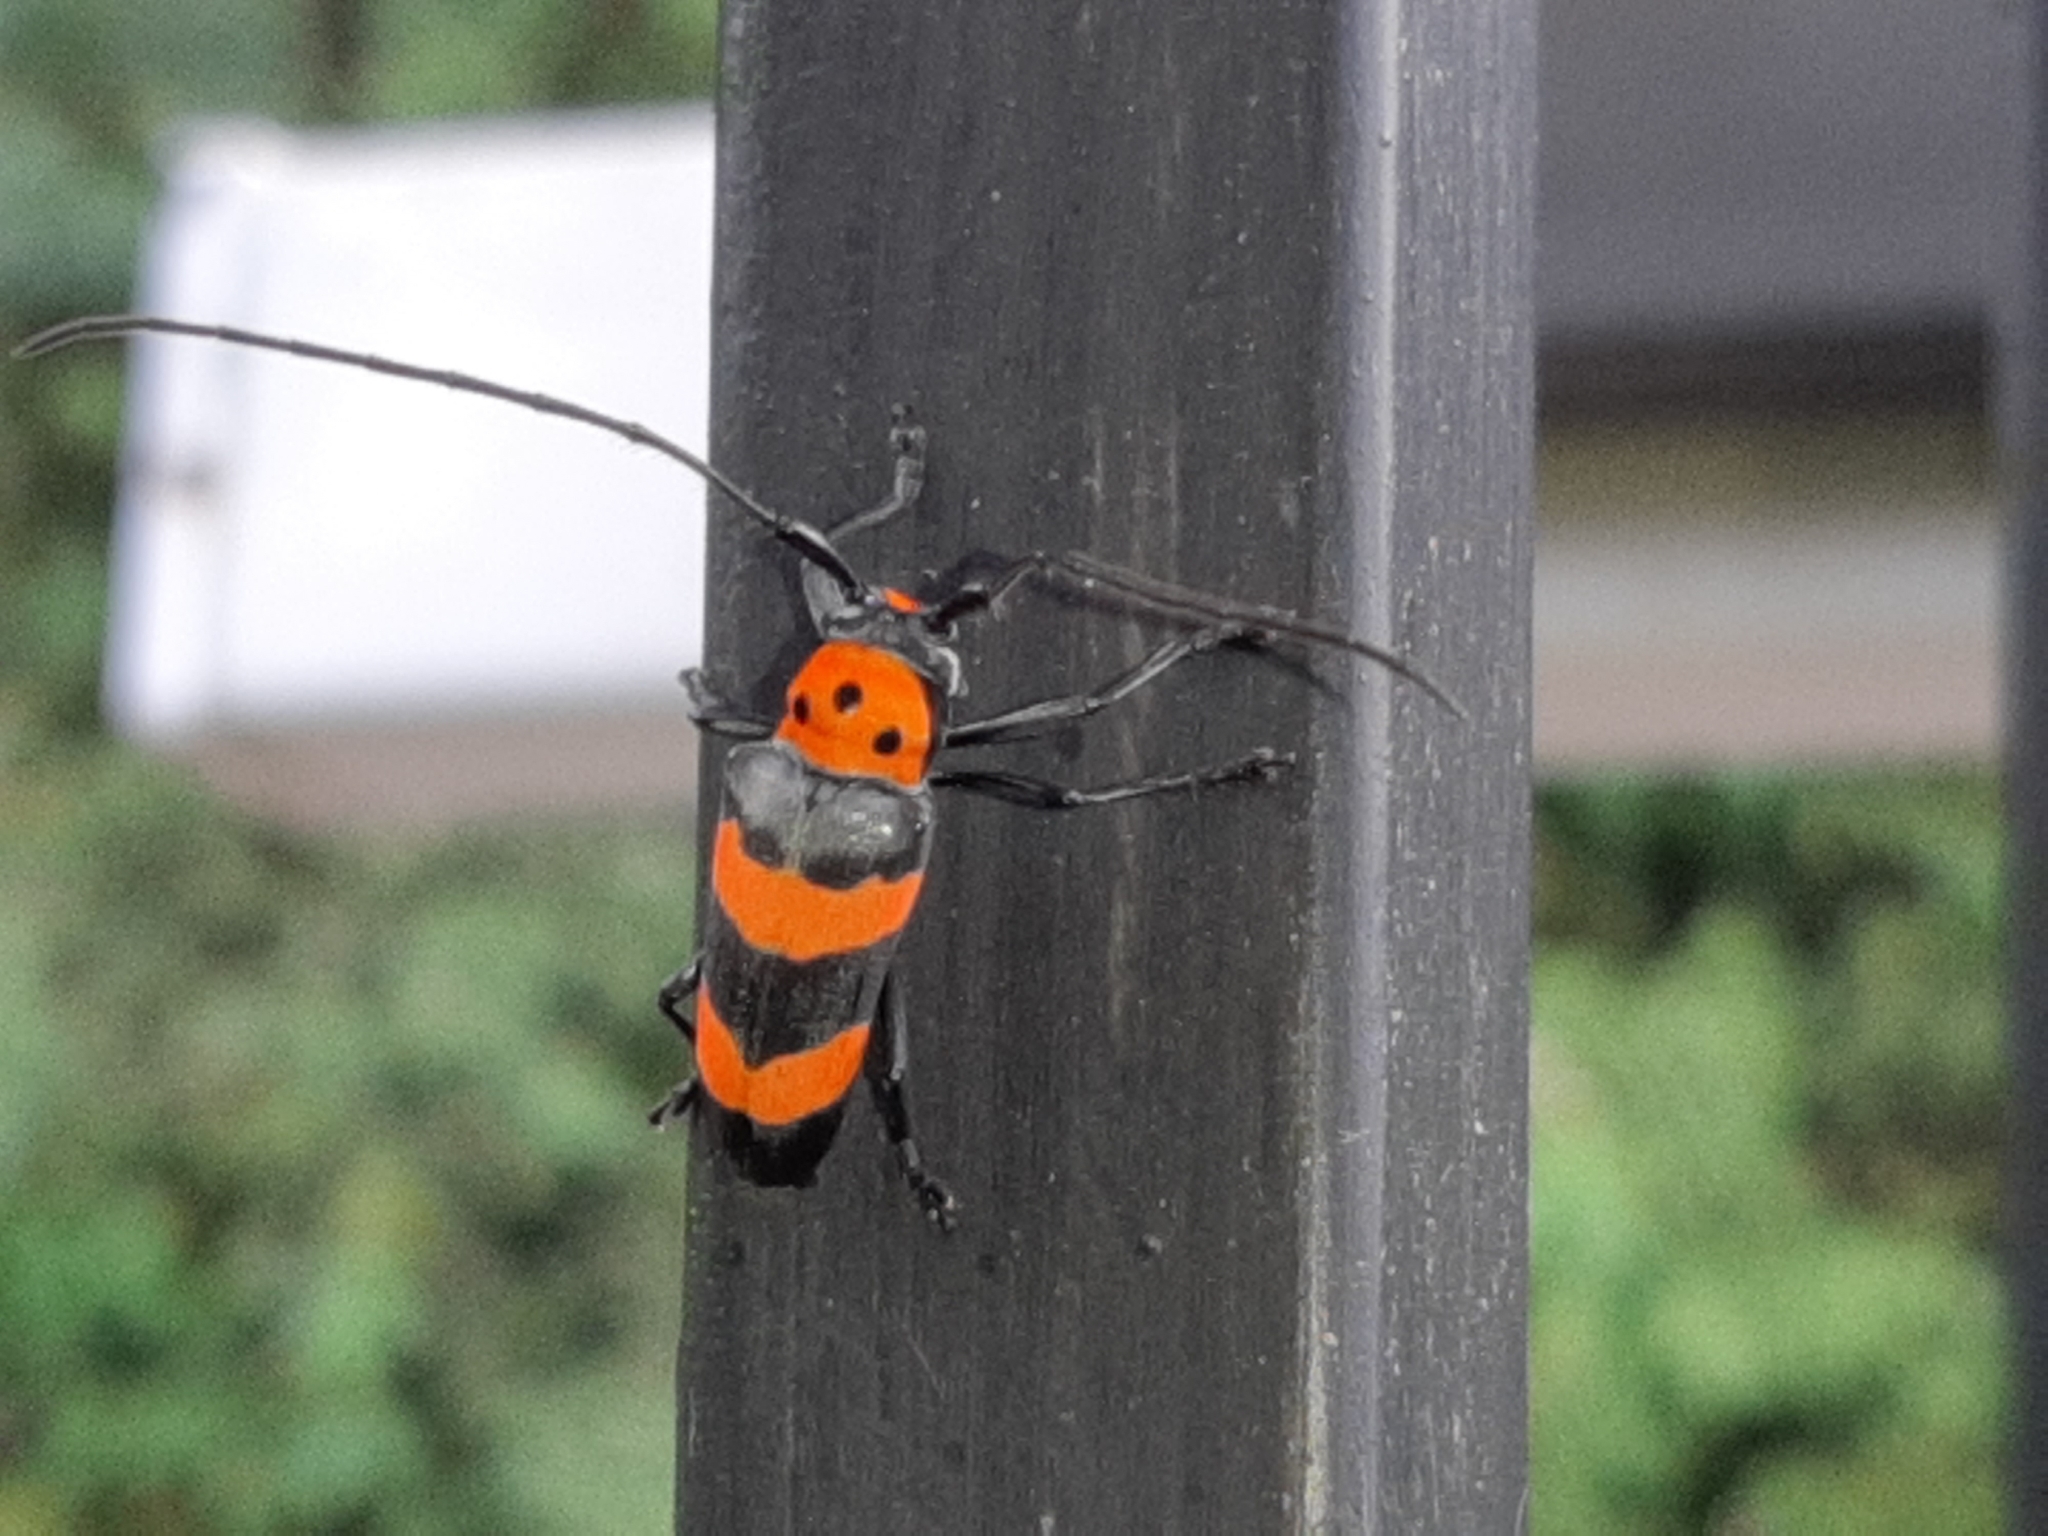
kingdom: Animalia
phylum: Arthropoda
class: Insecta
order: Coleoptera
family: Cerambycidae
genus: Oedudes
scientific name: Oedudes bifasciatus
